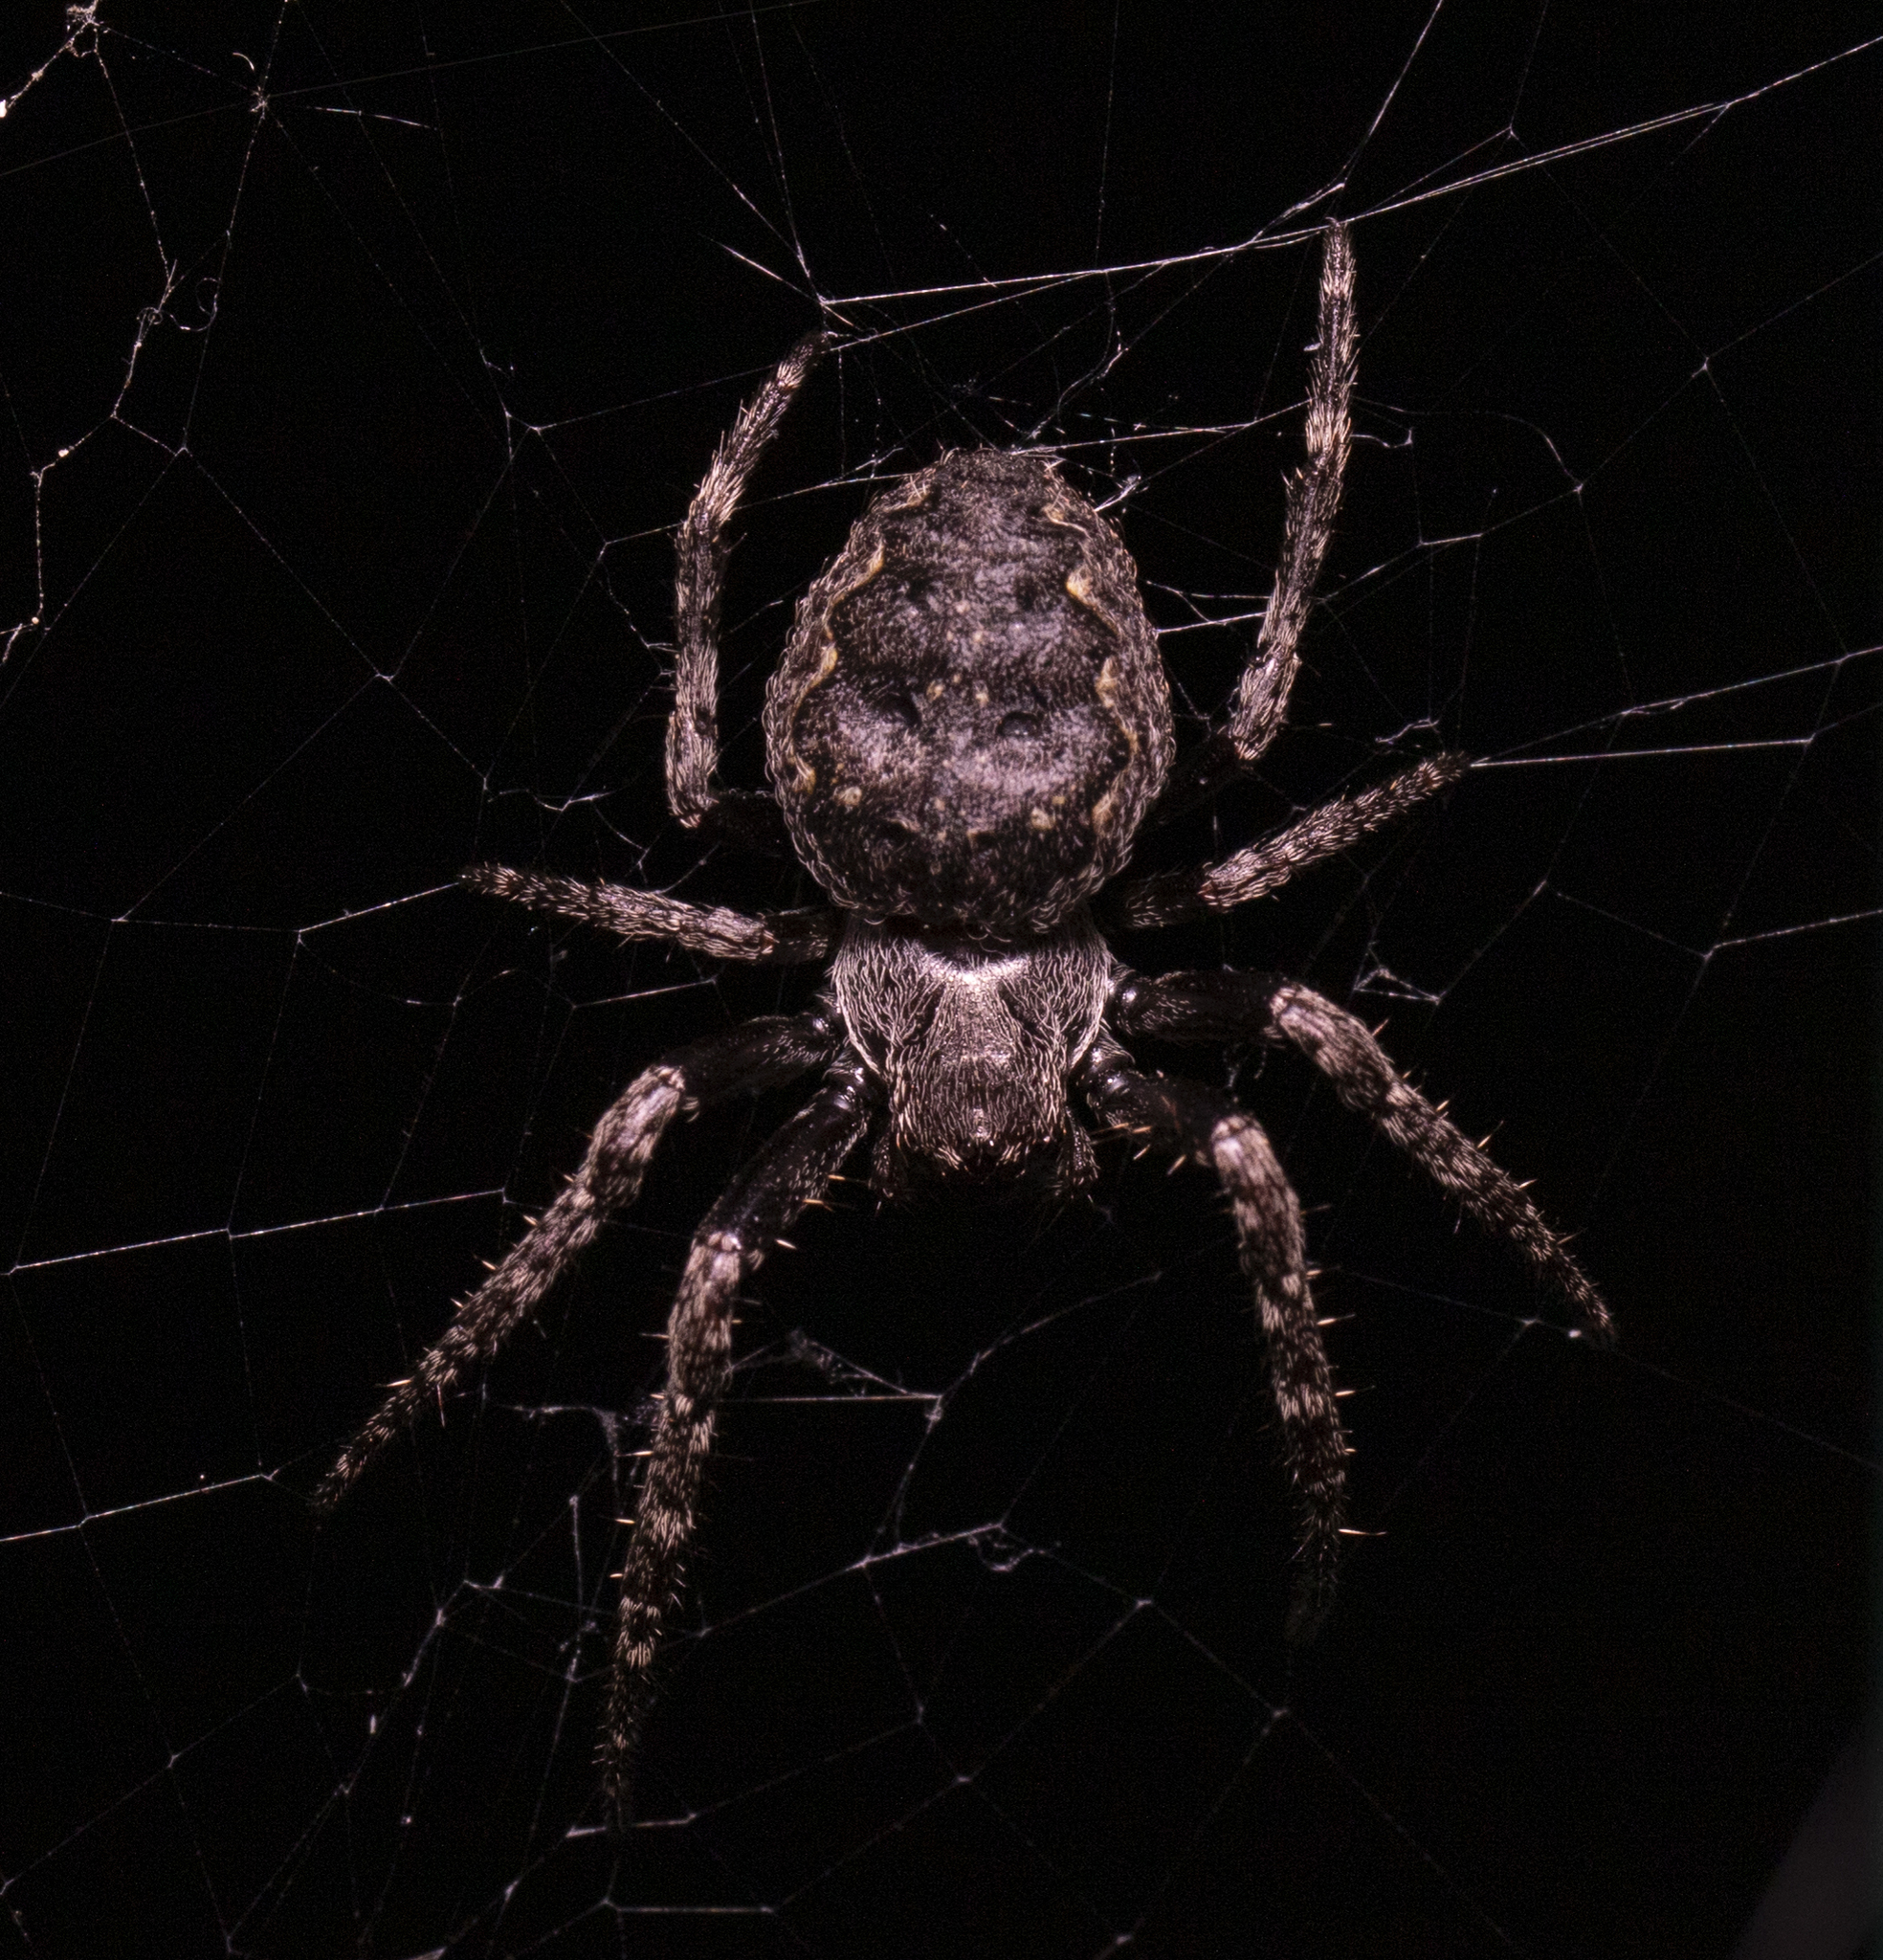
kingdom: Animalia
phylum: Arthropoda
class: Arachnida
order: Araneae
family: Araneidae
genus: Nuctenea
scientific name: Nuctenea umbratica
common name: Toad spider
